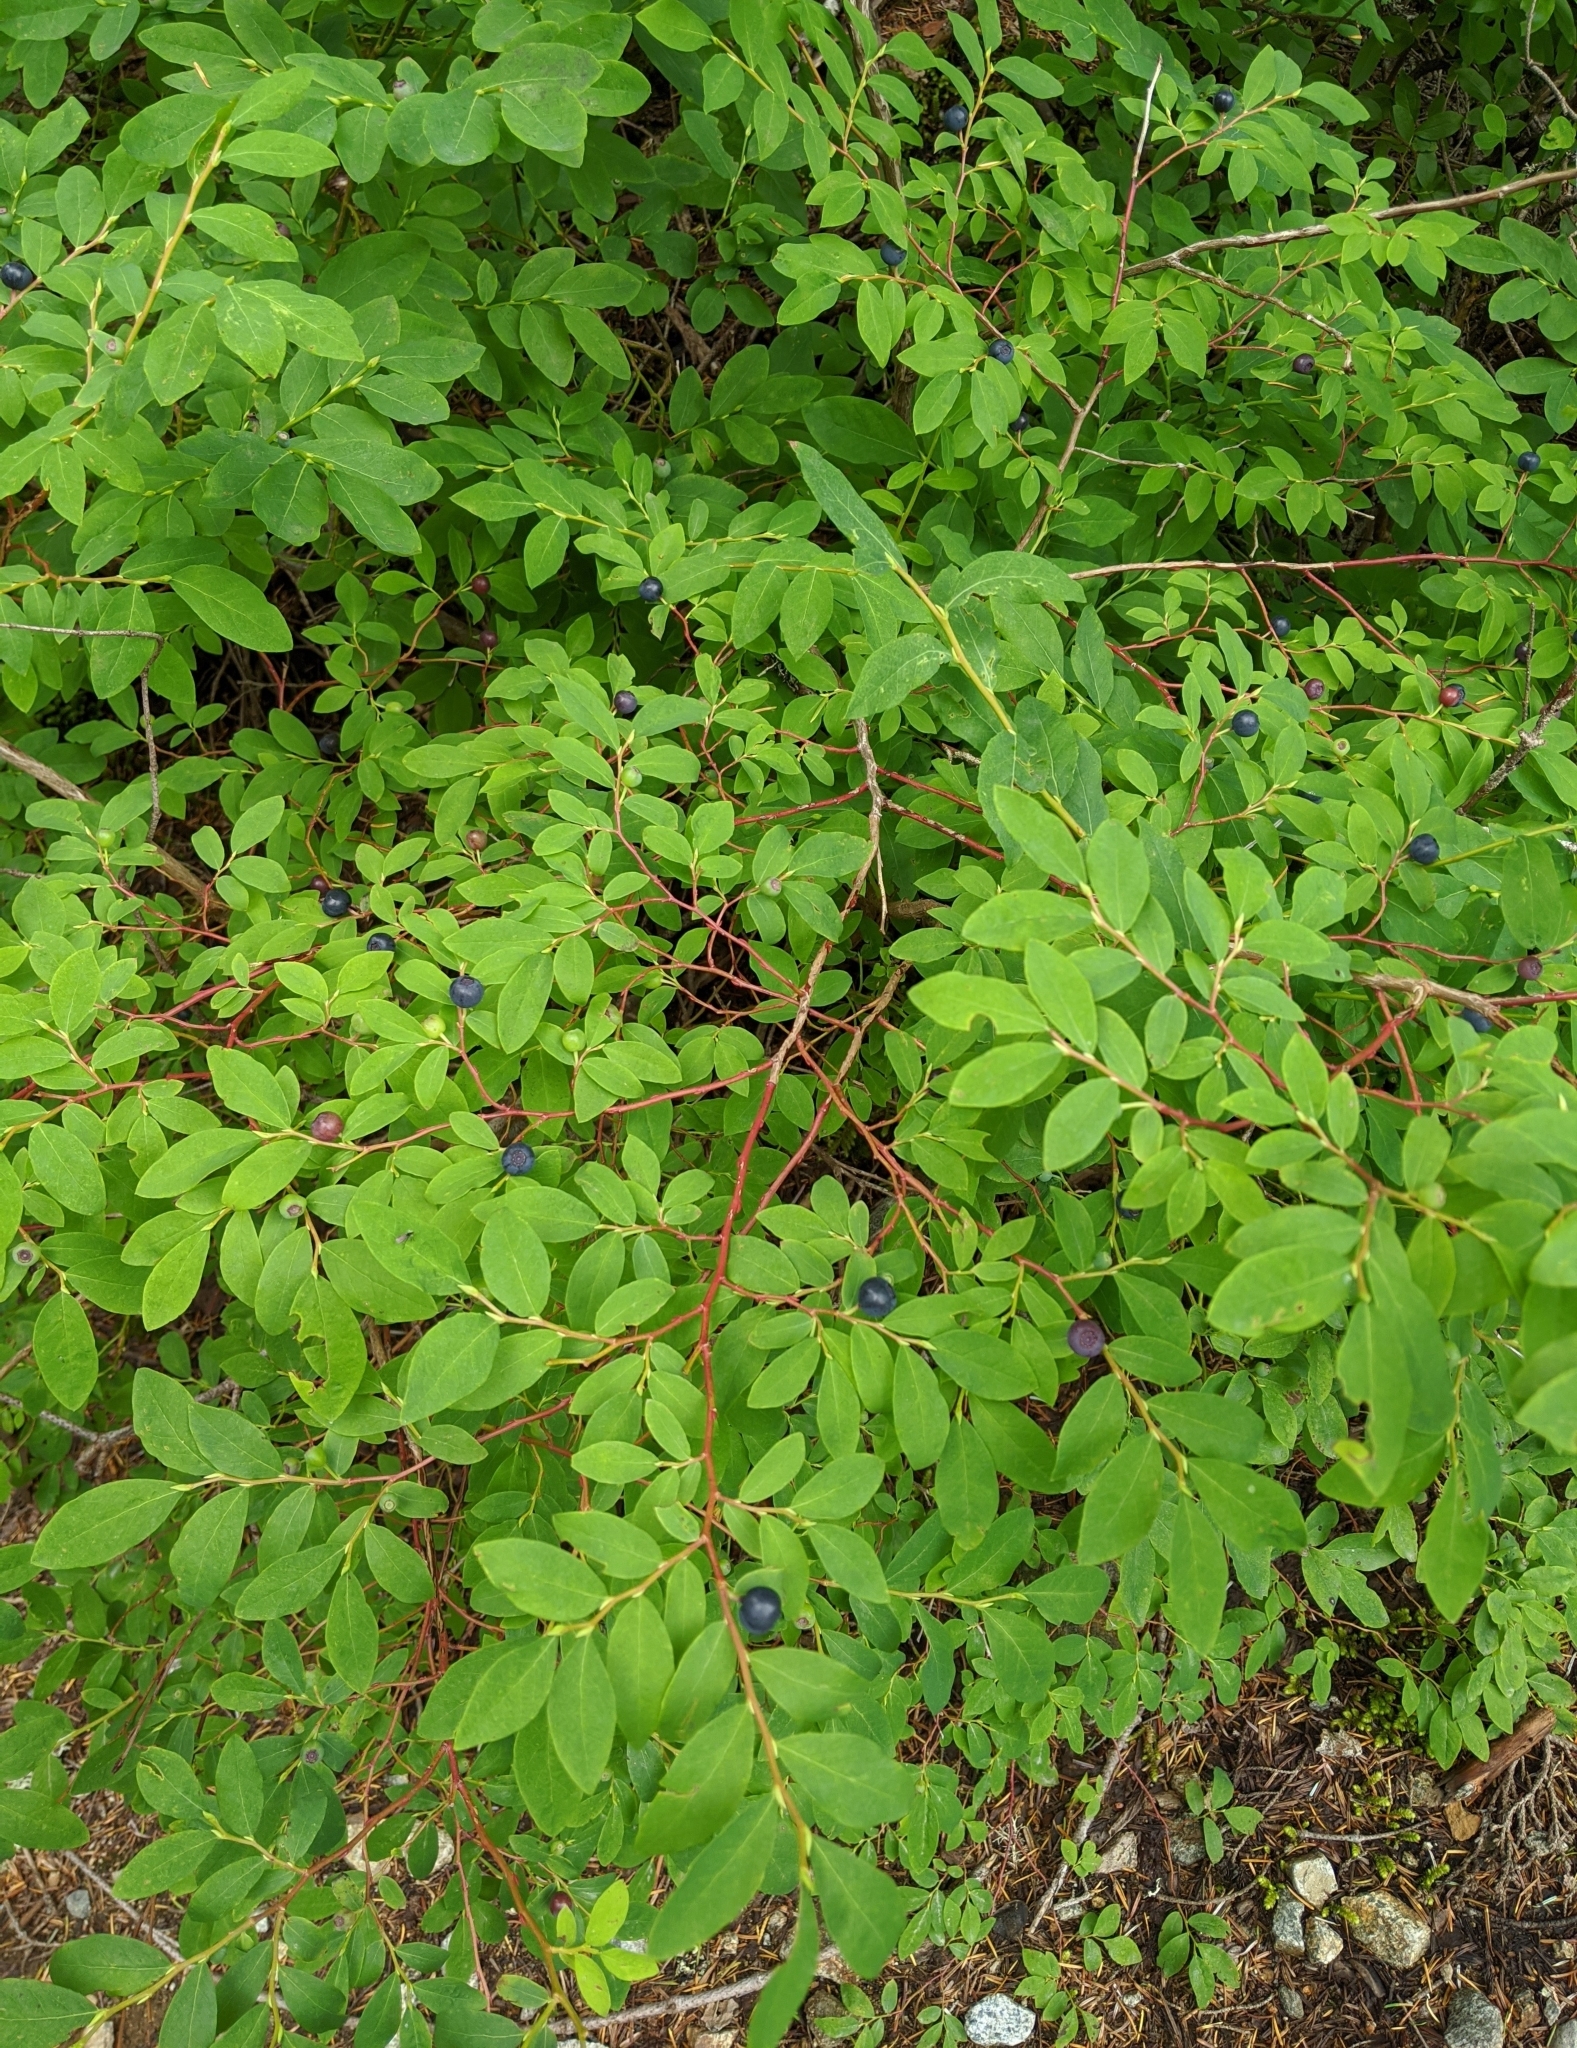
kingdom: Plantae
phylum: Tracheophyta
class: Magnoliopsida
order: Ericales
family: Ericaceae
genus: Vaccinium
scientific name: Vaccinium ovalifolium
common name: Early blueberry
